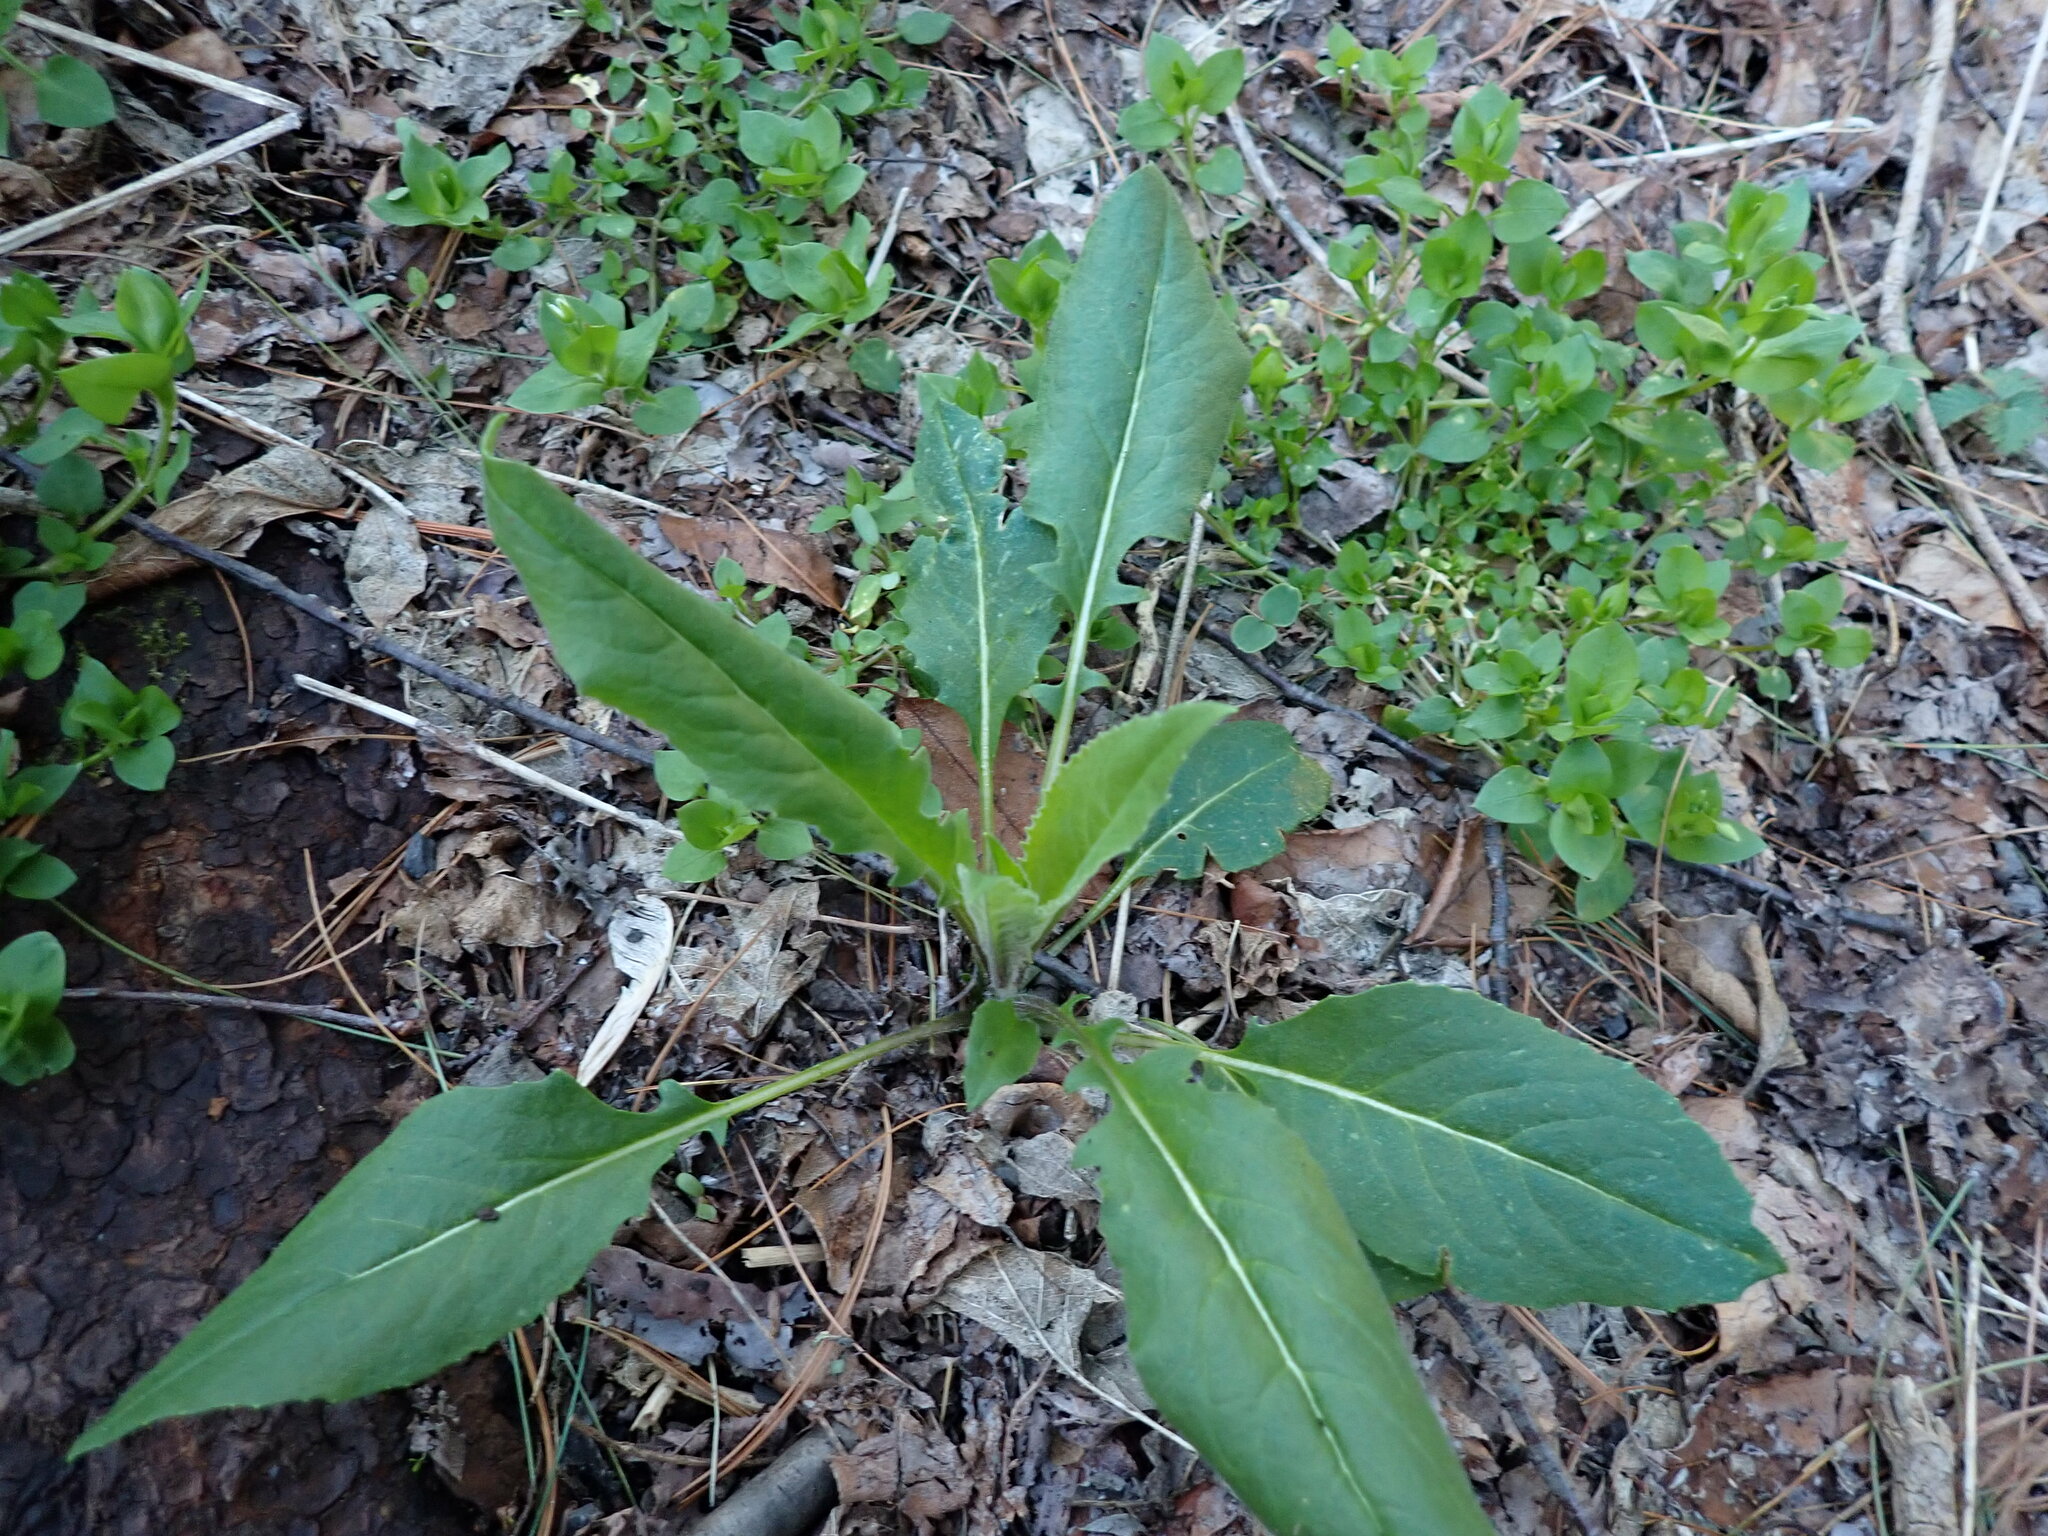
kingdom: Plantae
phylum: Tracheophyta
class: Magnoliopsida
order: Brassicales
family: Brassicaceae
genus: Hesperis
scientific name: Hesperis matronalis
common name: Dame's-violet
